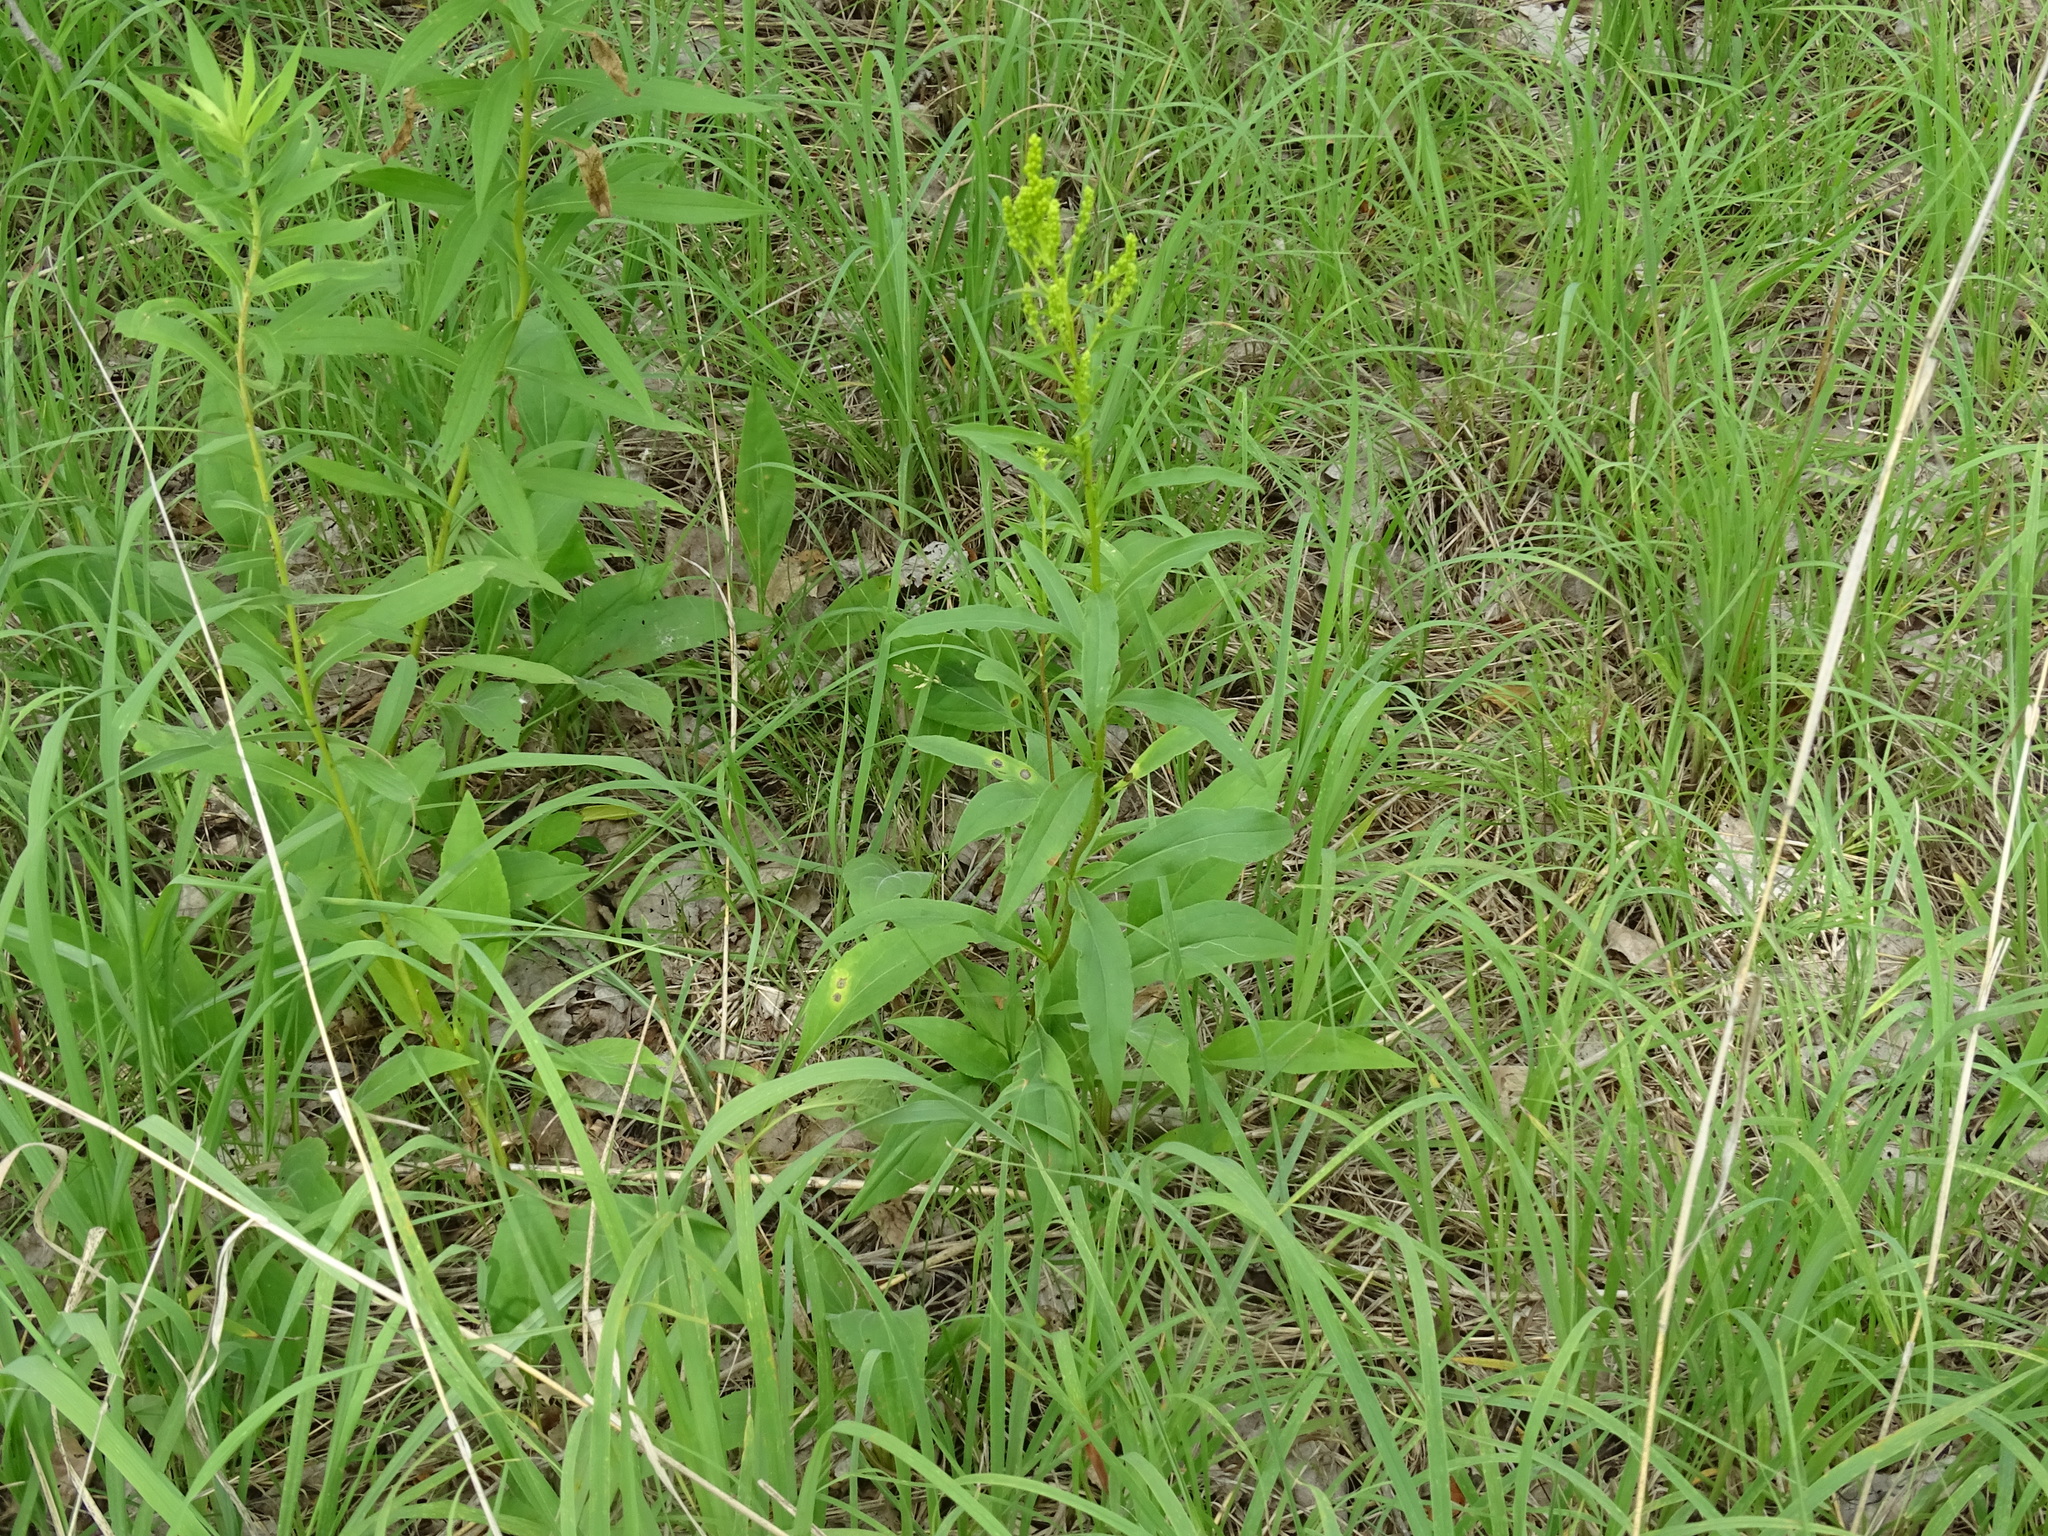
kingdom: Plantae
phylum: Tracheophyta
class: Magnoliopsida
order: Asterales
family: Asteraceae
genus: Solidago
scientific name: Solidago juncea
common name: Early goldenrod
